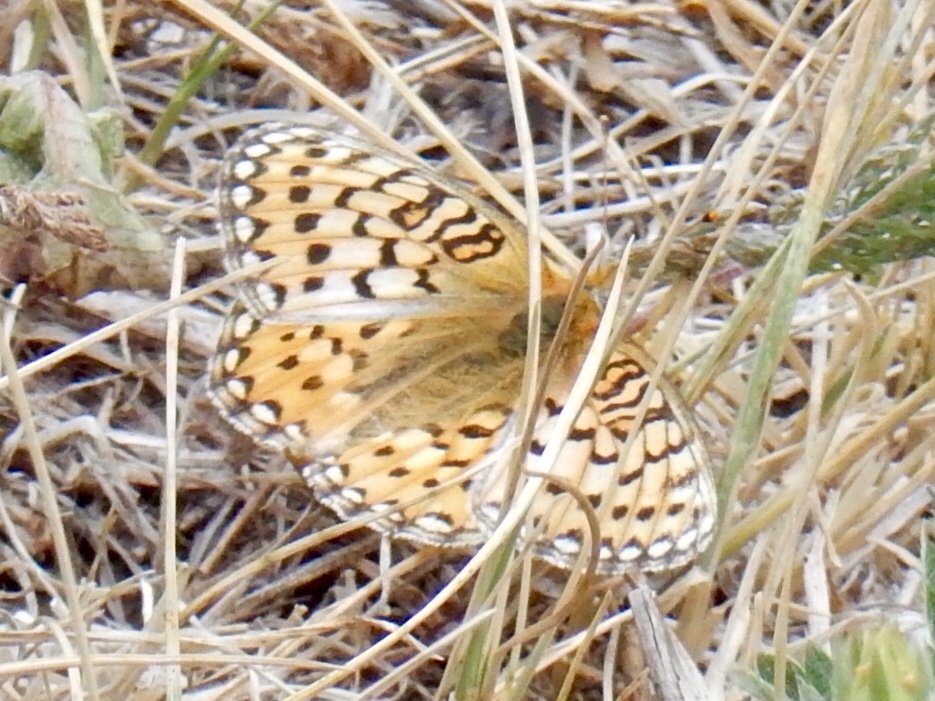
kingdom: Animalia
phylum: Arthropoda
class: Insecta
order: Lepidoptera
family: Nymphalidae
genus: Speyeria
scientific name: Speyeria callippe
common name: Callippe fritillary
